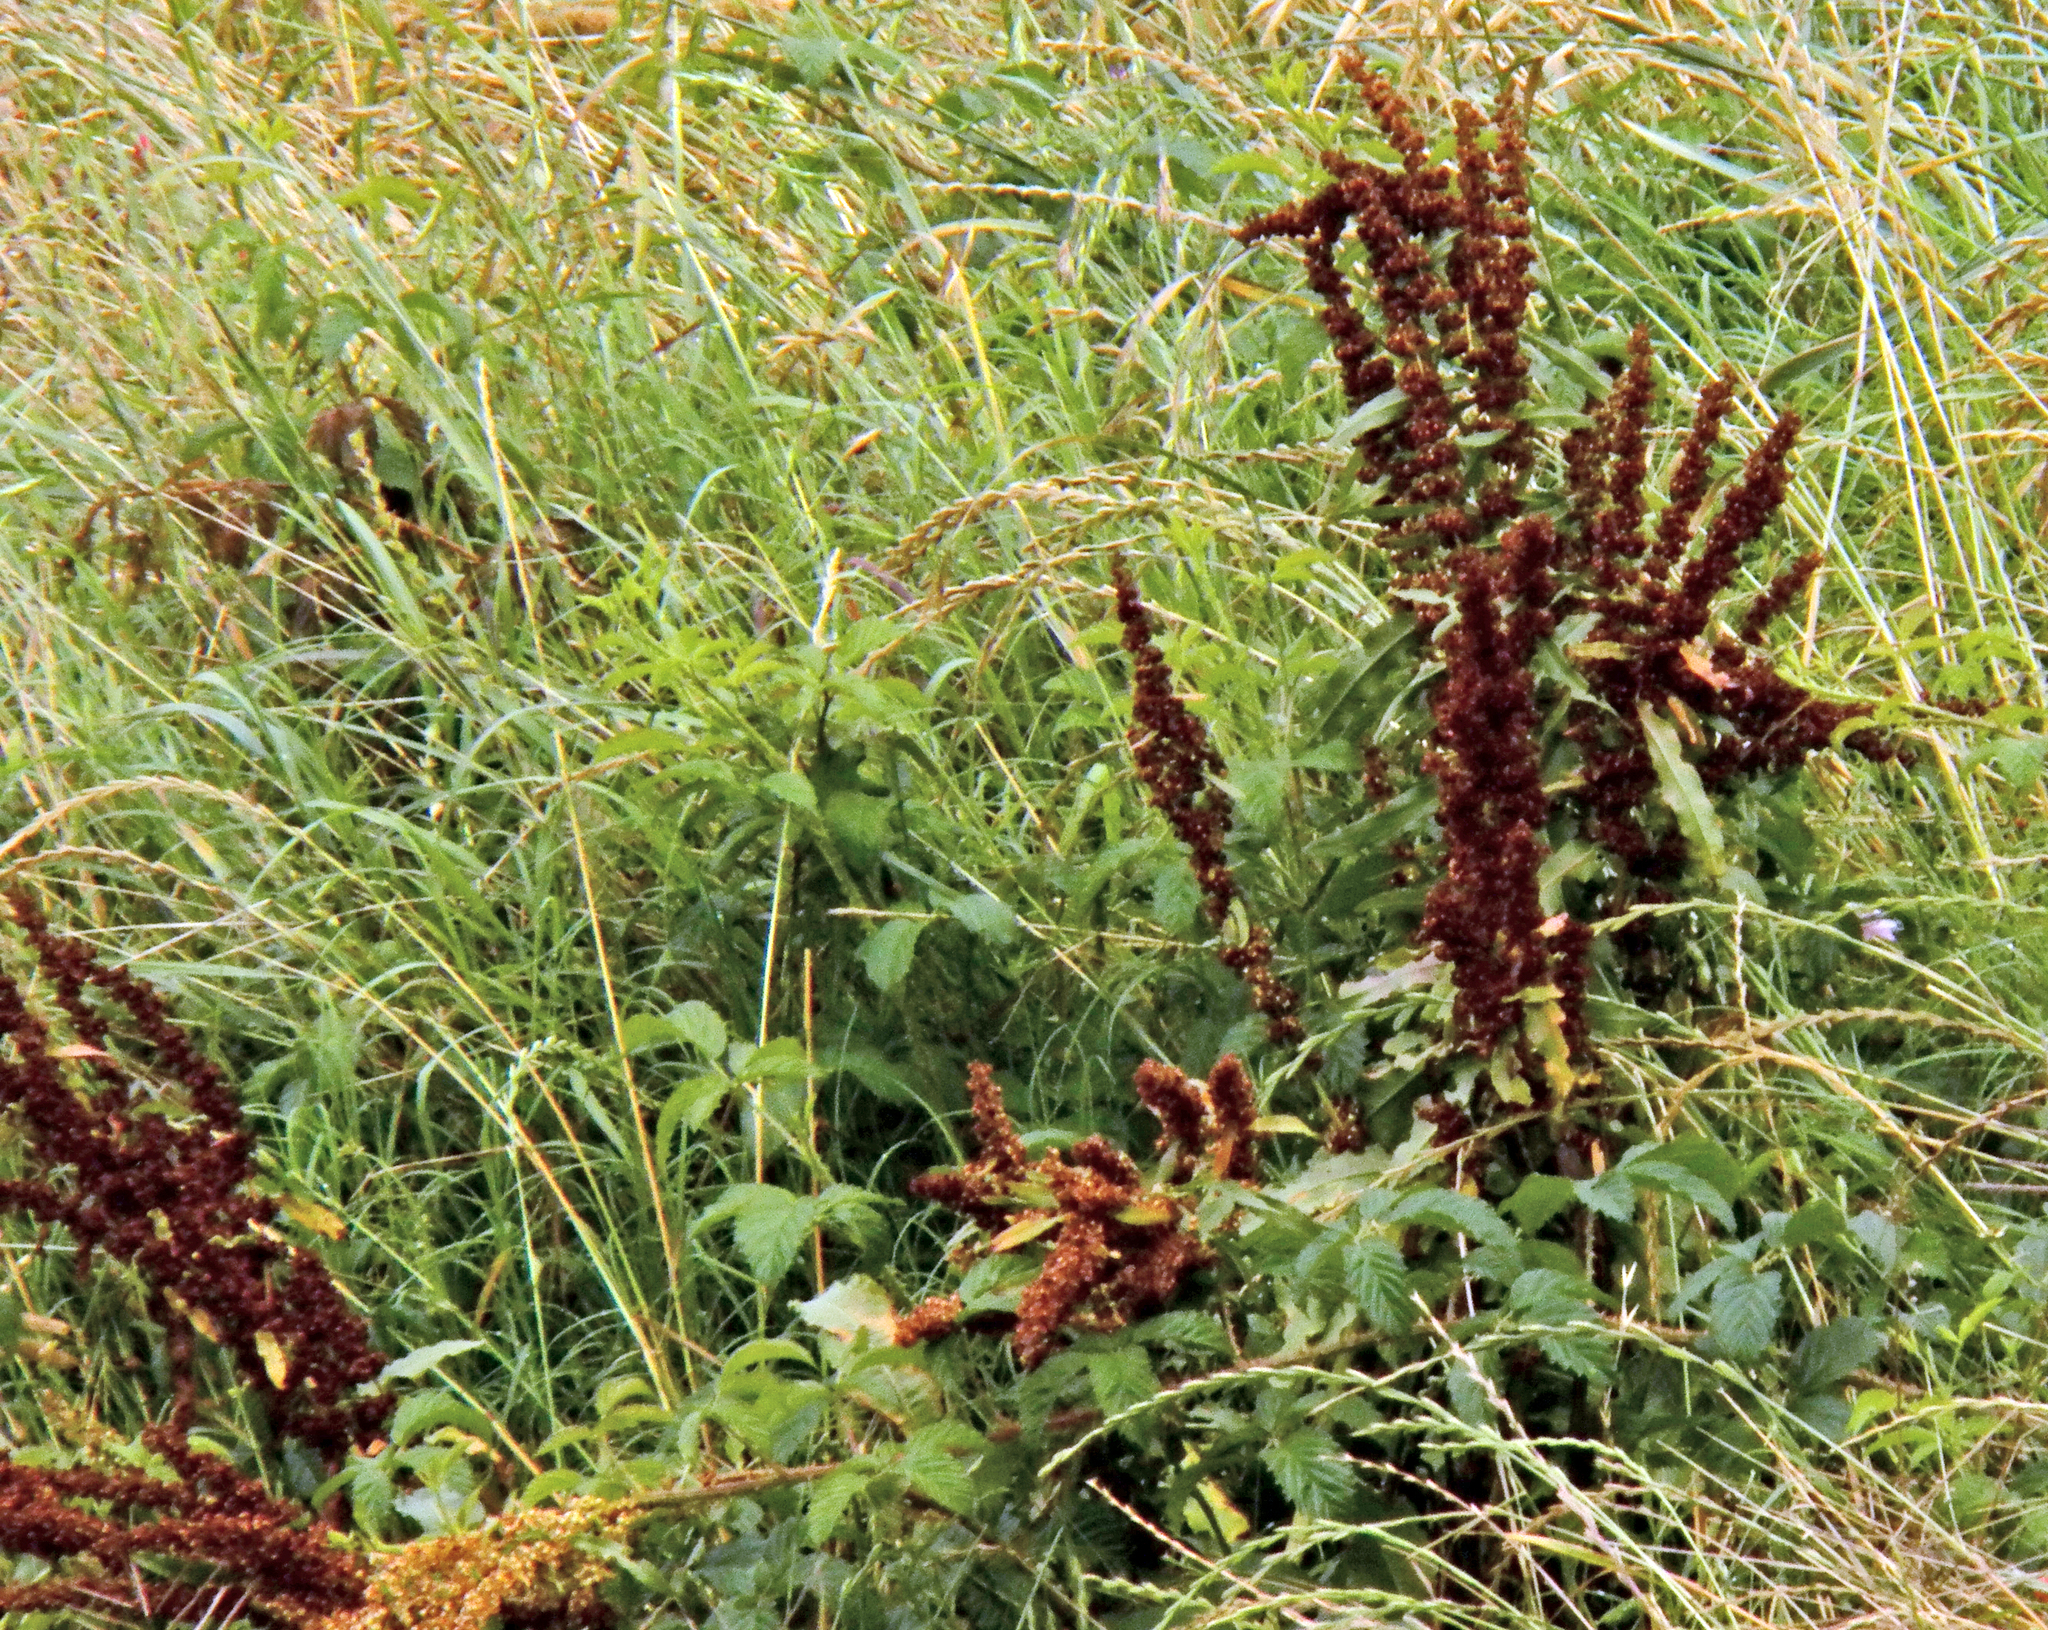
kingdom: Plantae
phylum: Tracheophyta
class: Magnoliopsida
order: Caryophyllales
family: Polygonaceae
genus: Rumex
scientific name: Rumex crispus
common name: Curled dock
